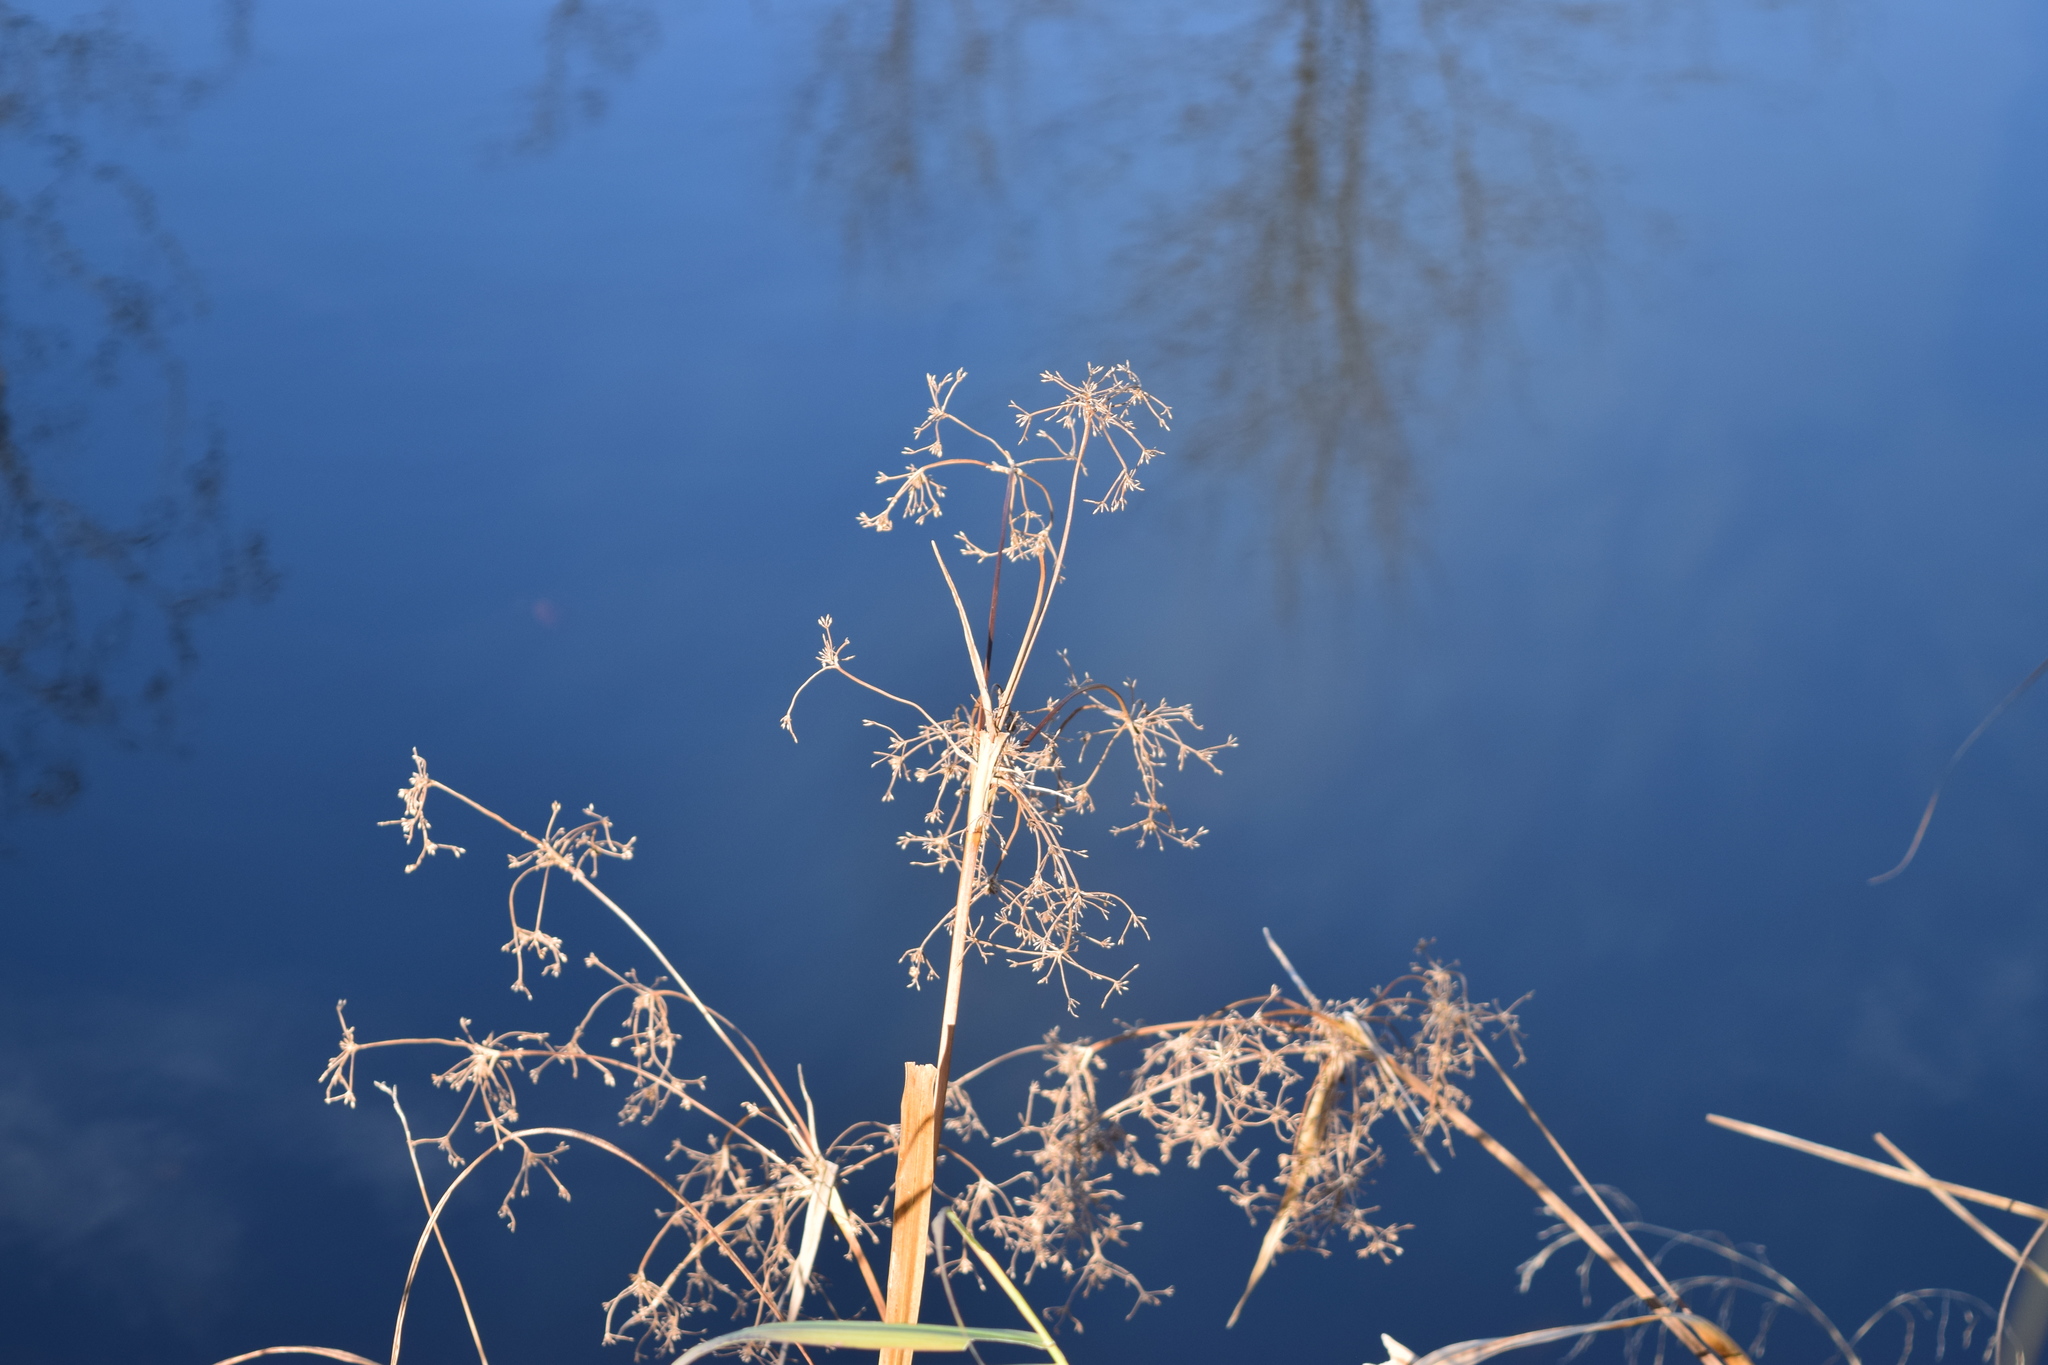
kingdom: Plantae
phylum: Tracheophyta
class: Liliopsida
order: Poales
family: Cyperaceae
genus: Scirpus
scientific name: Scirpus sylvaticus
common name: Wood club-rush
